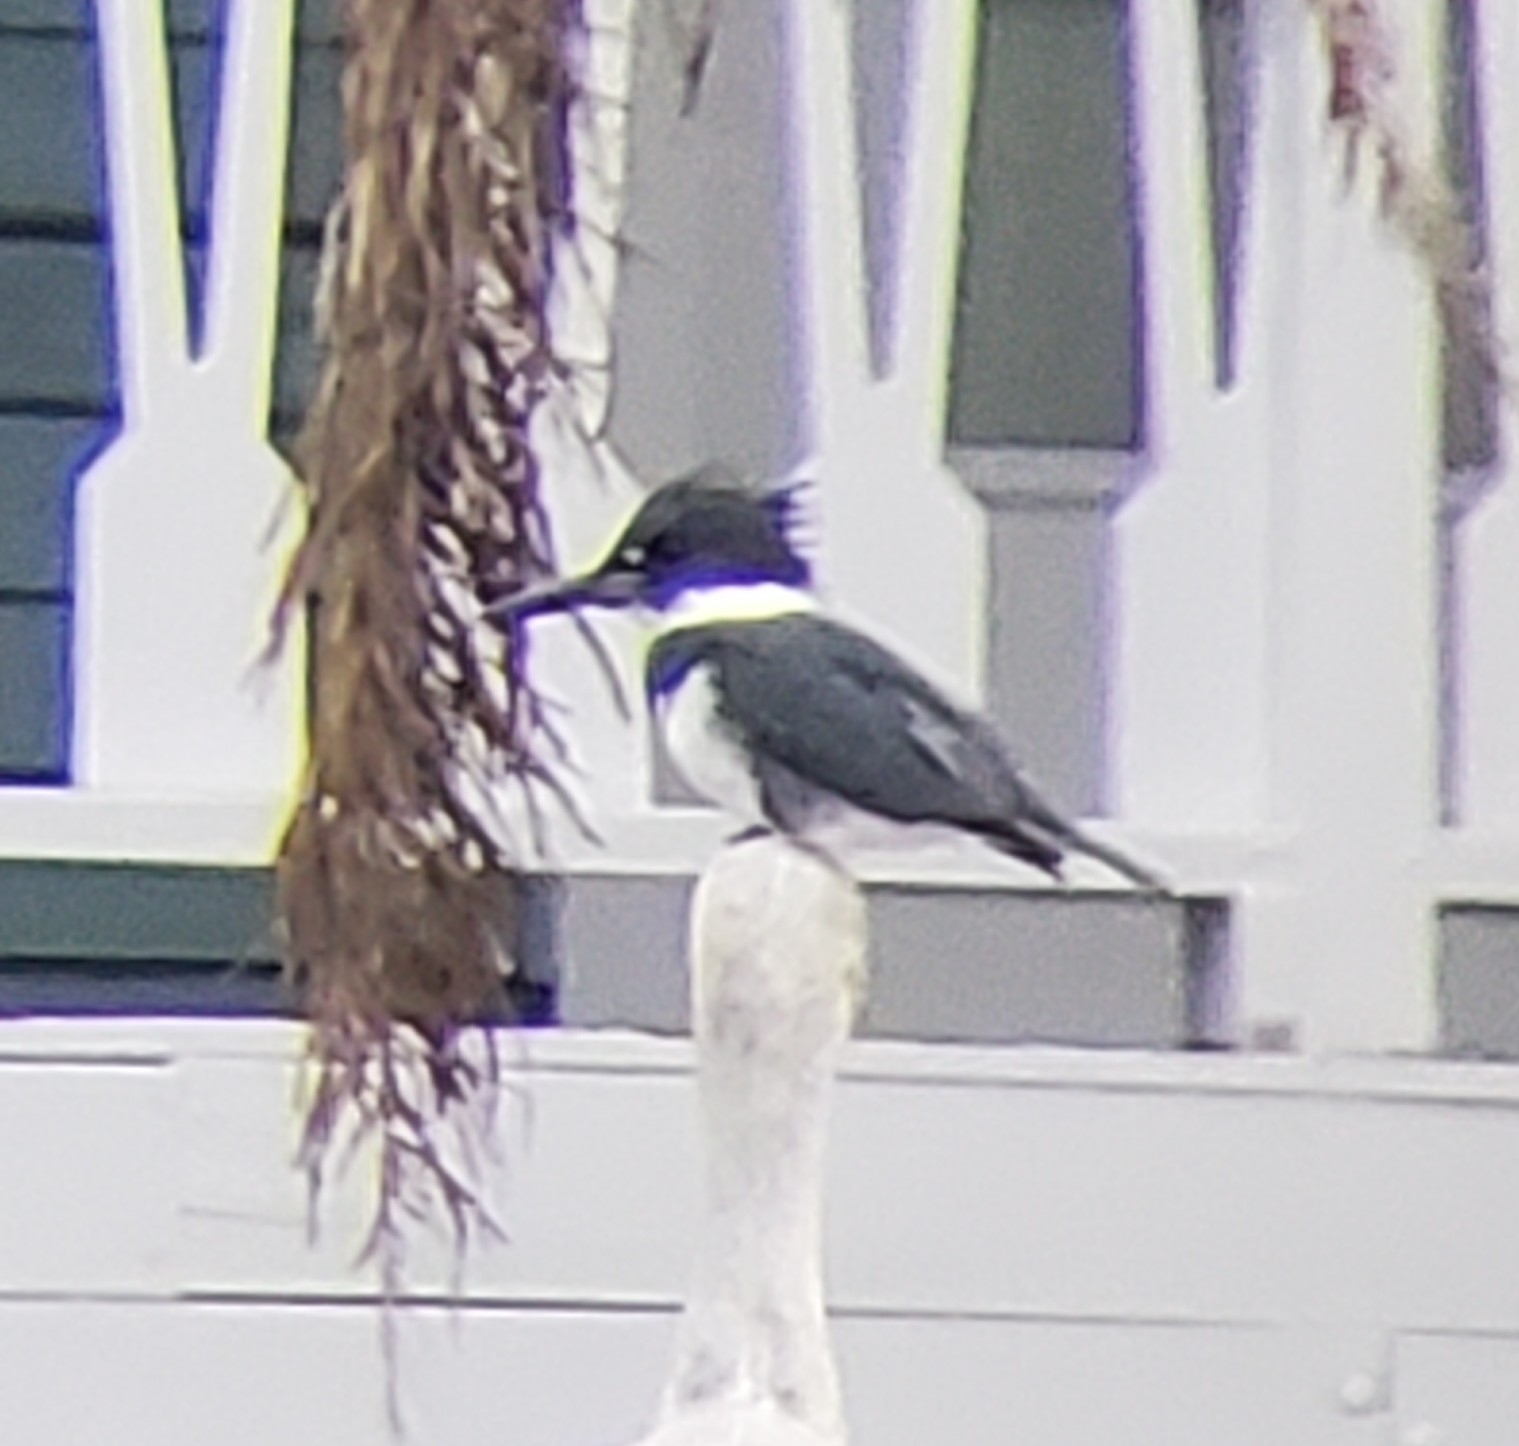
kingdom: Animalia
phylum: Chordata
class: Aves
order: Coraciiformes
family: Alcedinidae
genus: Megaceryle
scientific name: Megaceryle alcyon
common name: Belted kingfisher
